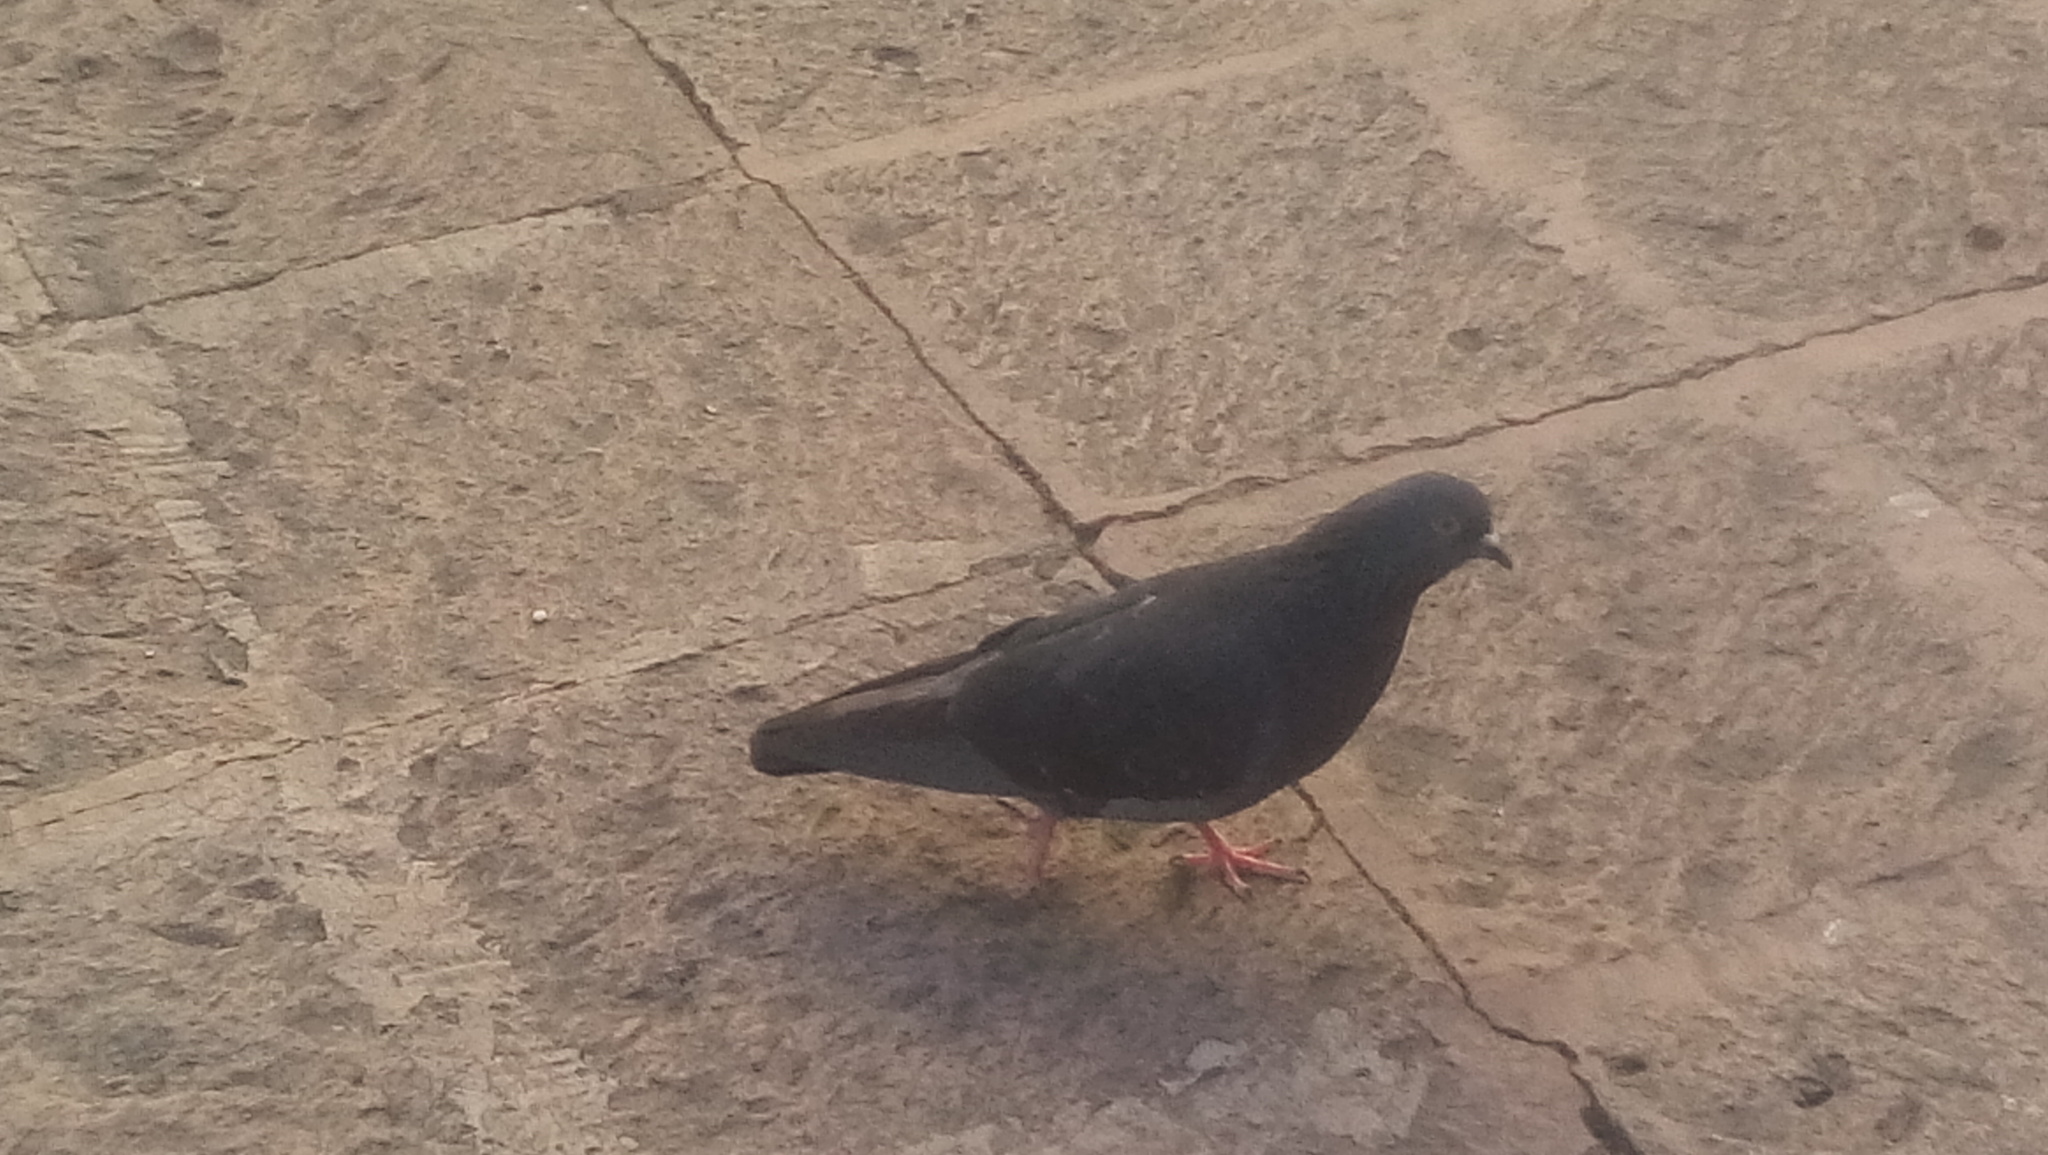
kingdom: Animalia
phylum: Chordata
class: Aves
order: Columbiformes
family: Columbidae
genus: Columba
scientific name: Columba livia
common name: Rock pigeon
